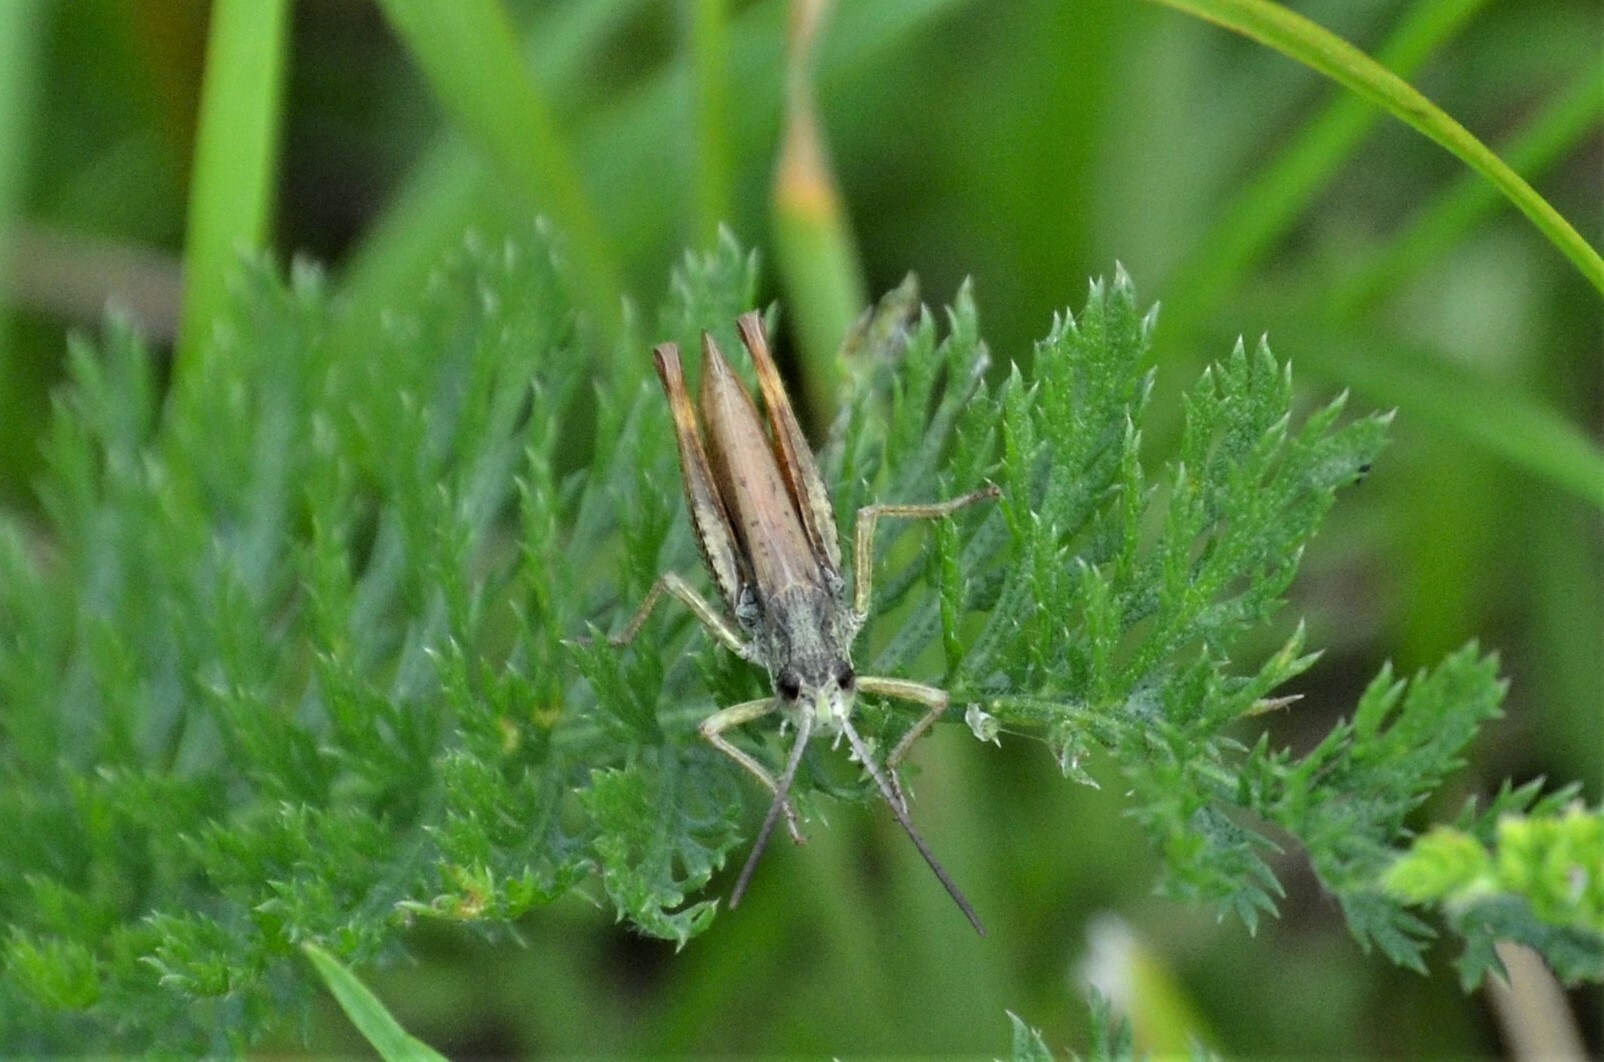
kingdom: Animalia
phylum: Arthropoda
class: Insecta
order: Orthoptera
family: Acrididae
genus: Chorthippus
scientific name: Chorthippus apricarius
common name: Upland field grasshopper
